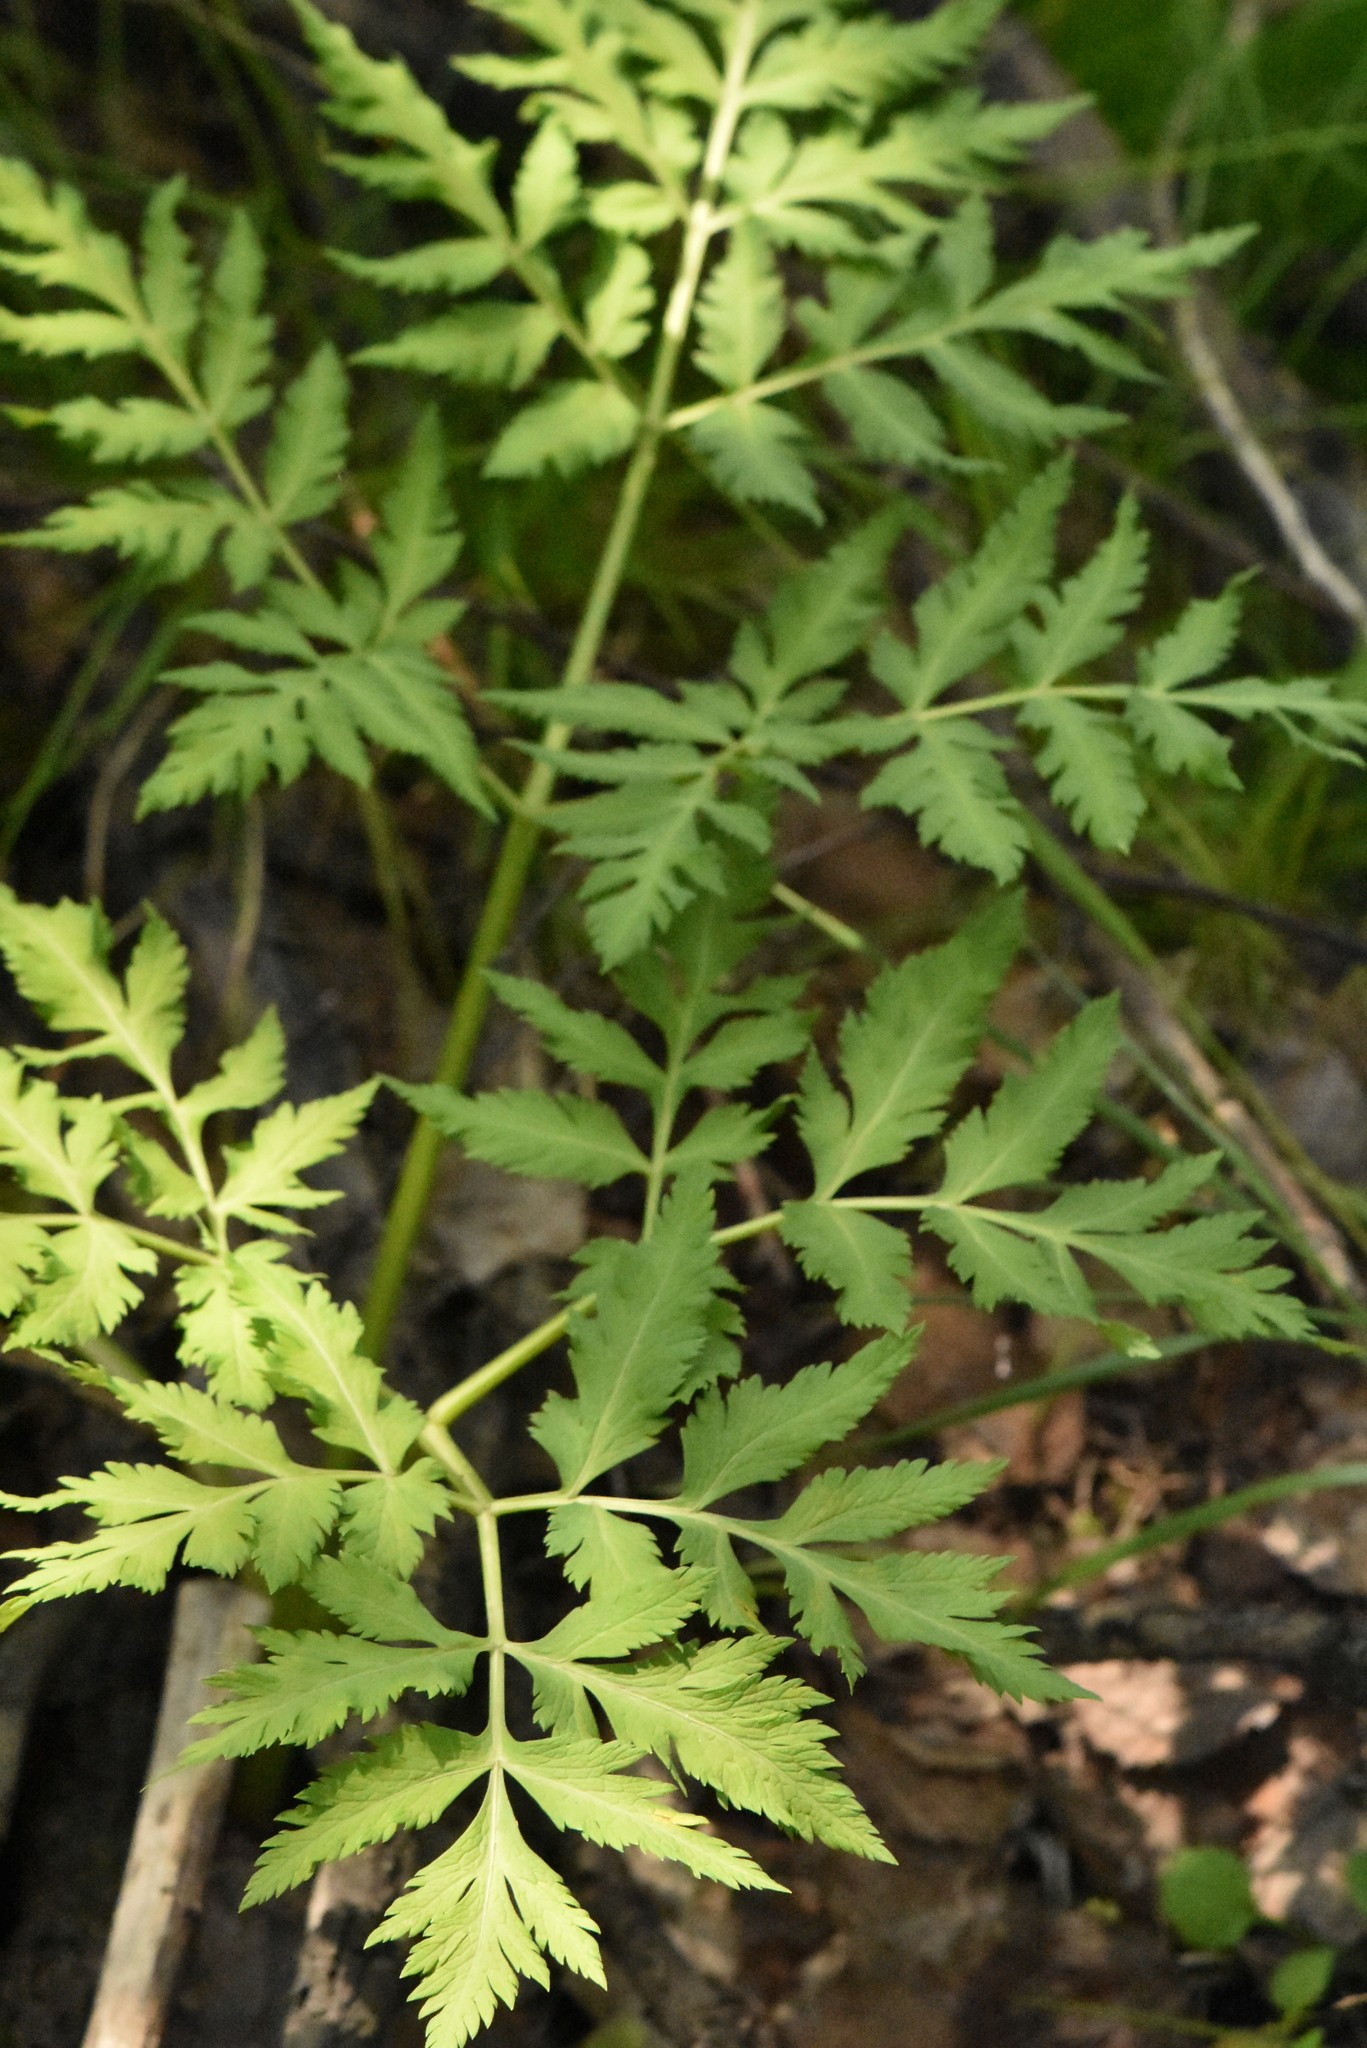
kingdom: Plantae
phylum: Tracheophyta
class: Magnoliopsida
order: Apiales
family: Apiaceae
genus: Pleurospermum
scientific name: Pleurospermum uralense
